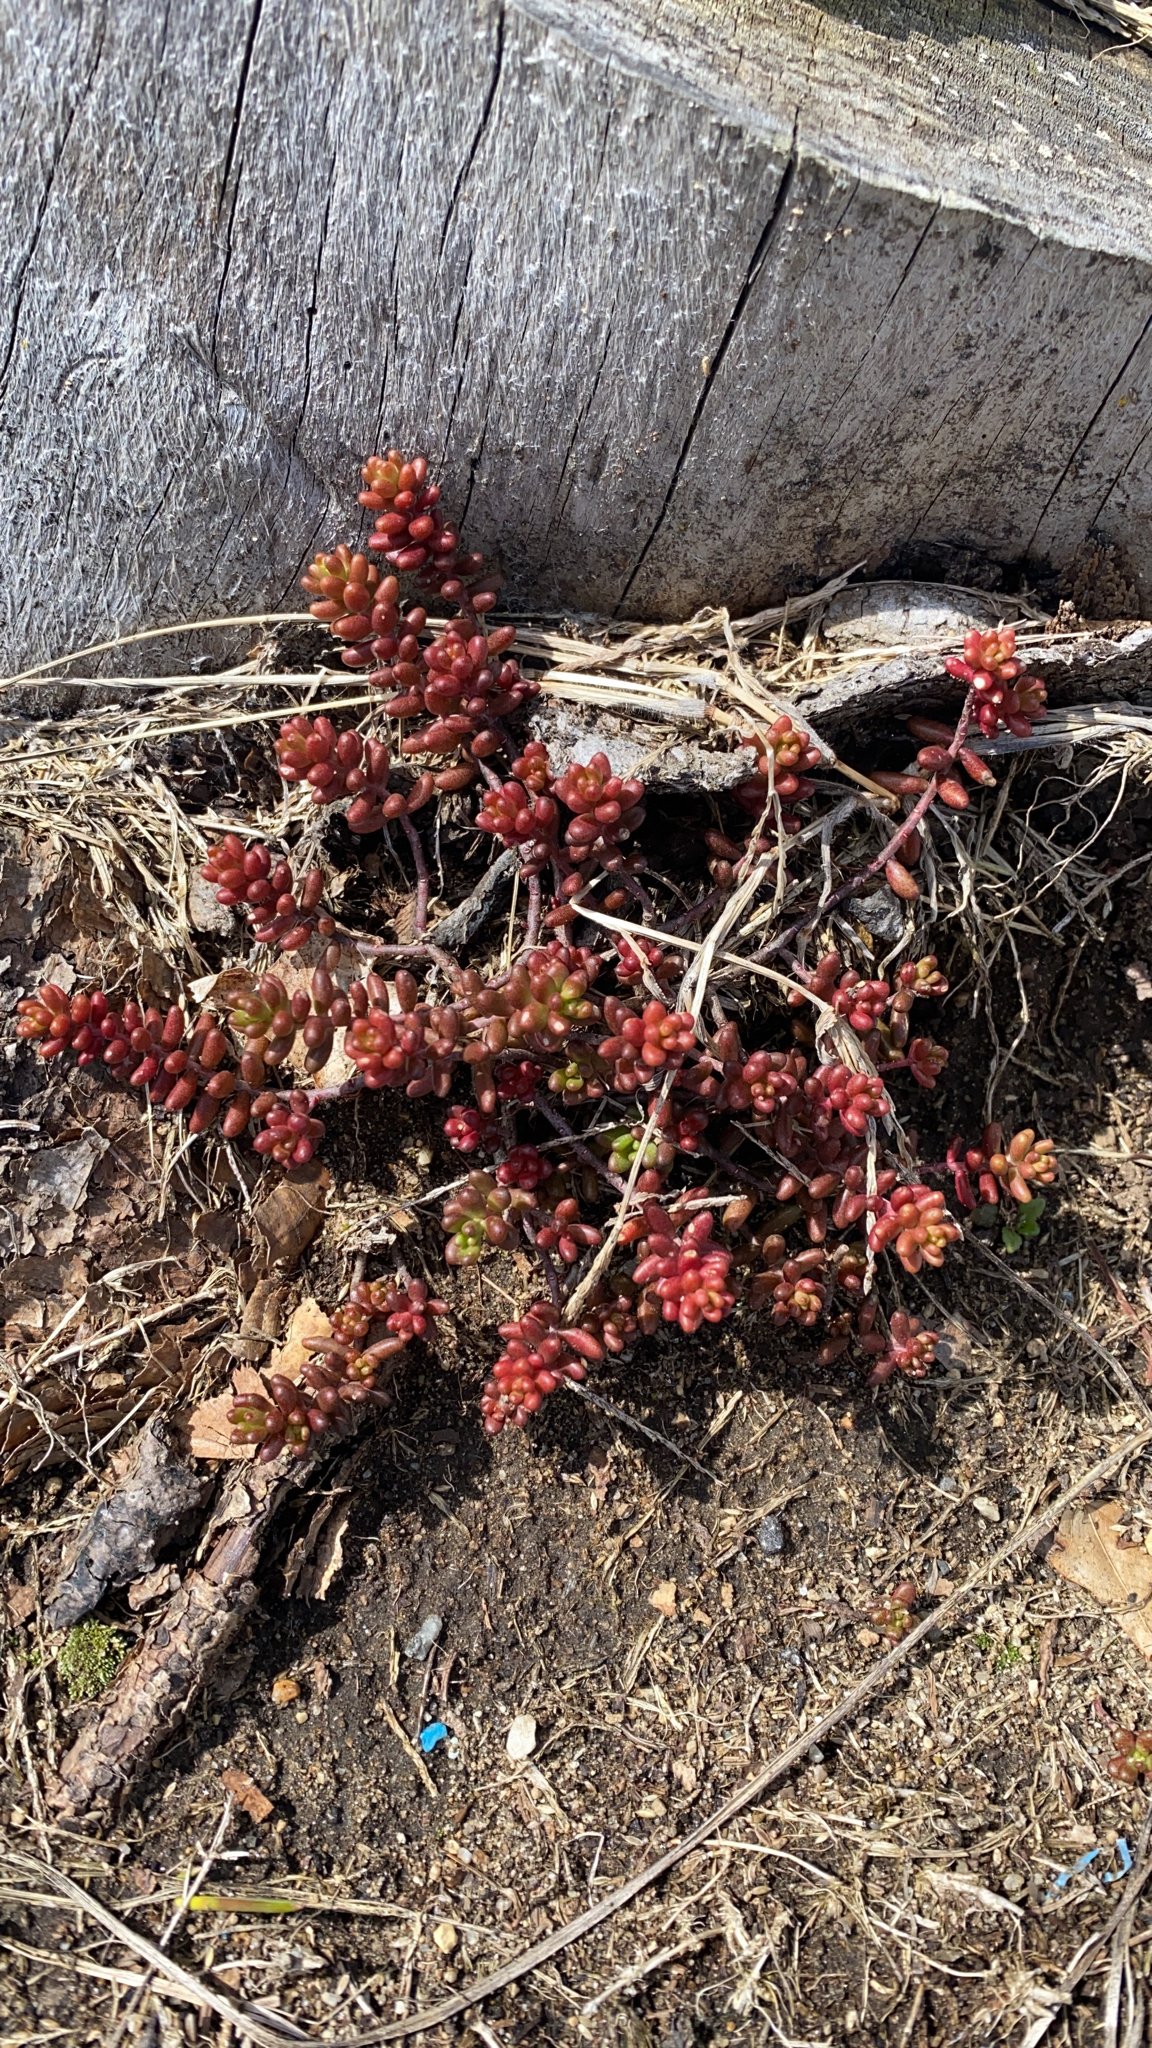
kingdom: Plantae
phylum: Tracheophyta
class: Magnoliopsida
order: Saxifragales
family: Crassulaceae
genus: Sedum
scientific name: Sedum album
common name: White stonecrop
